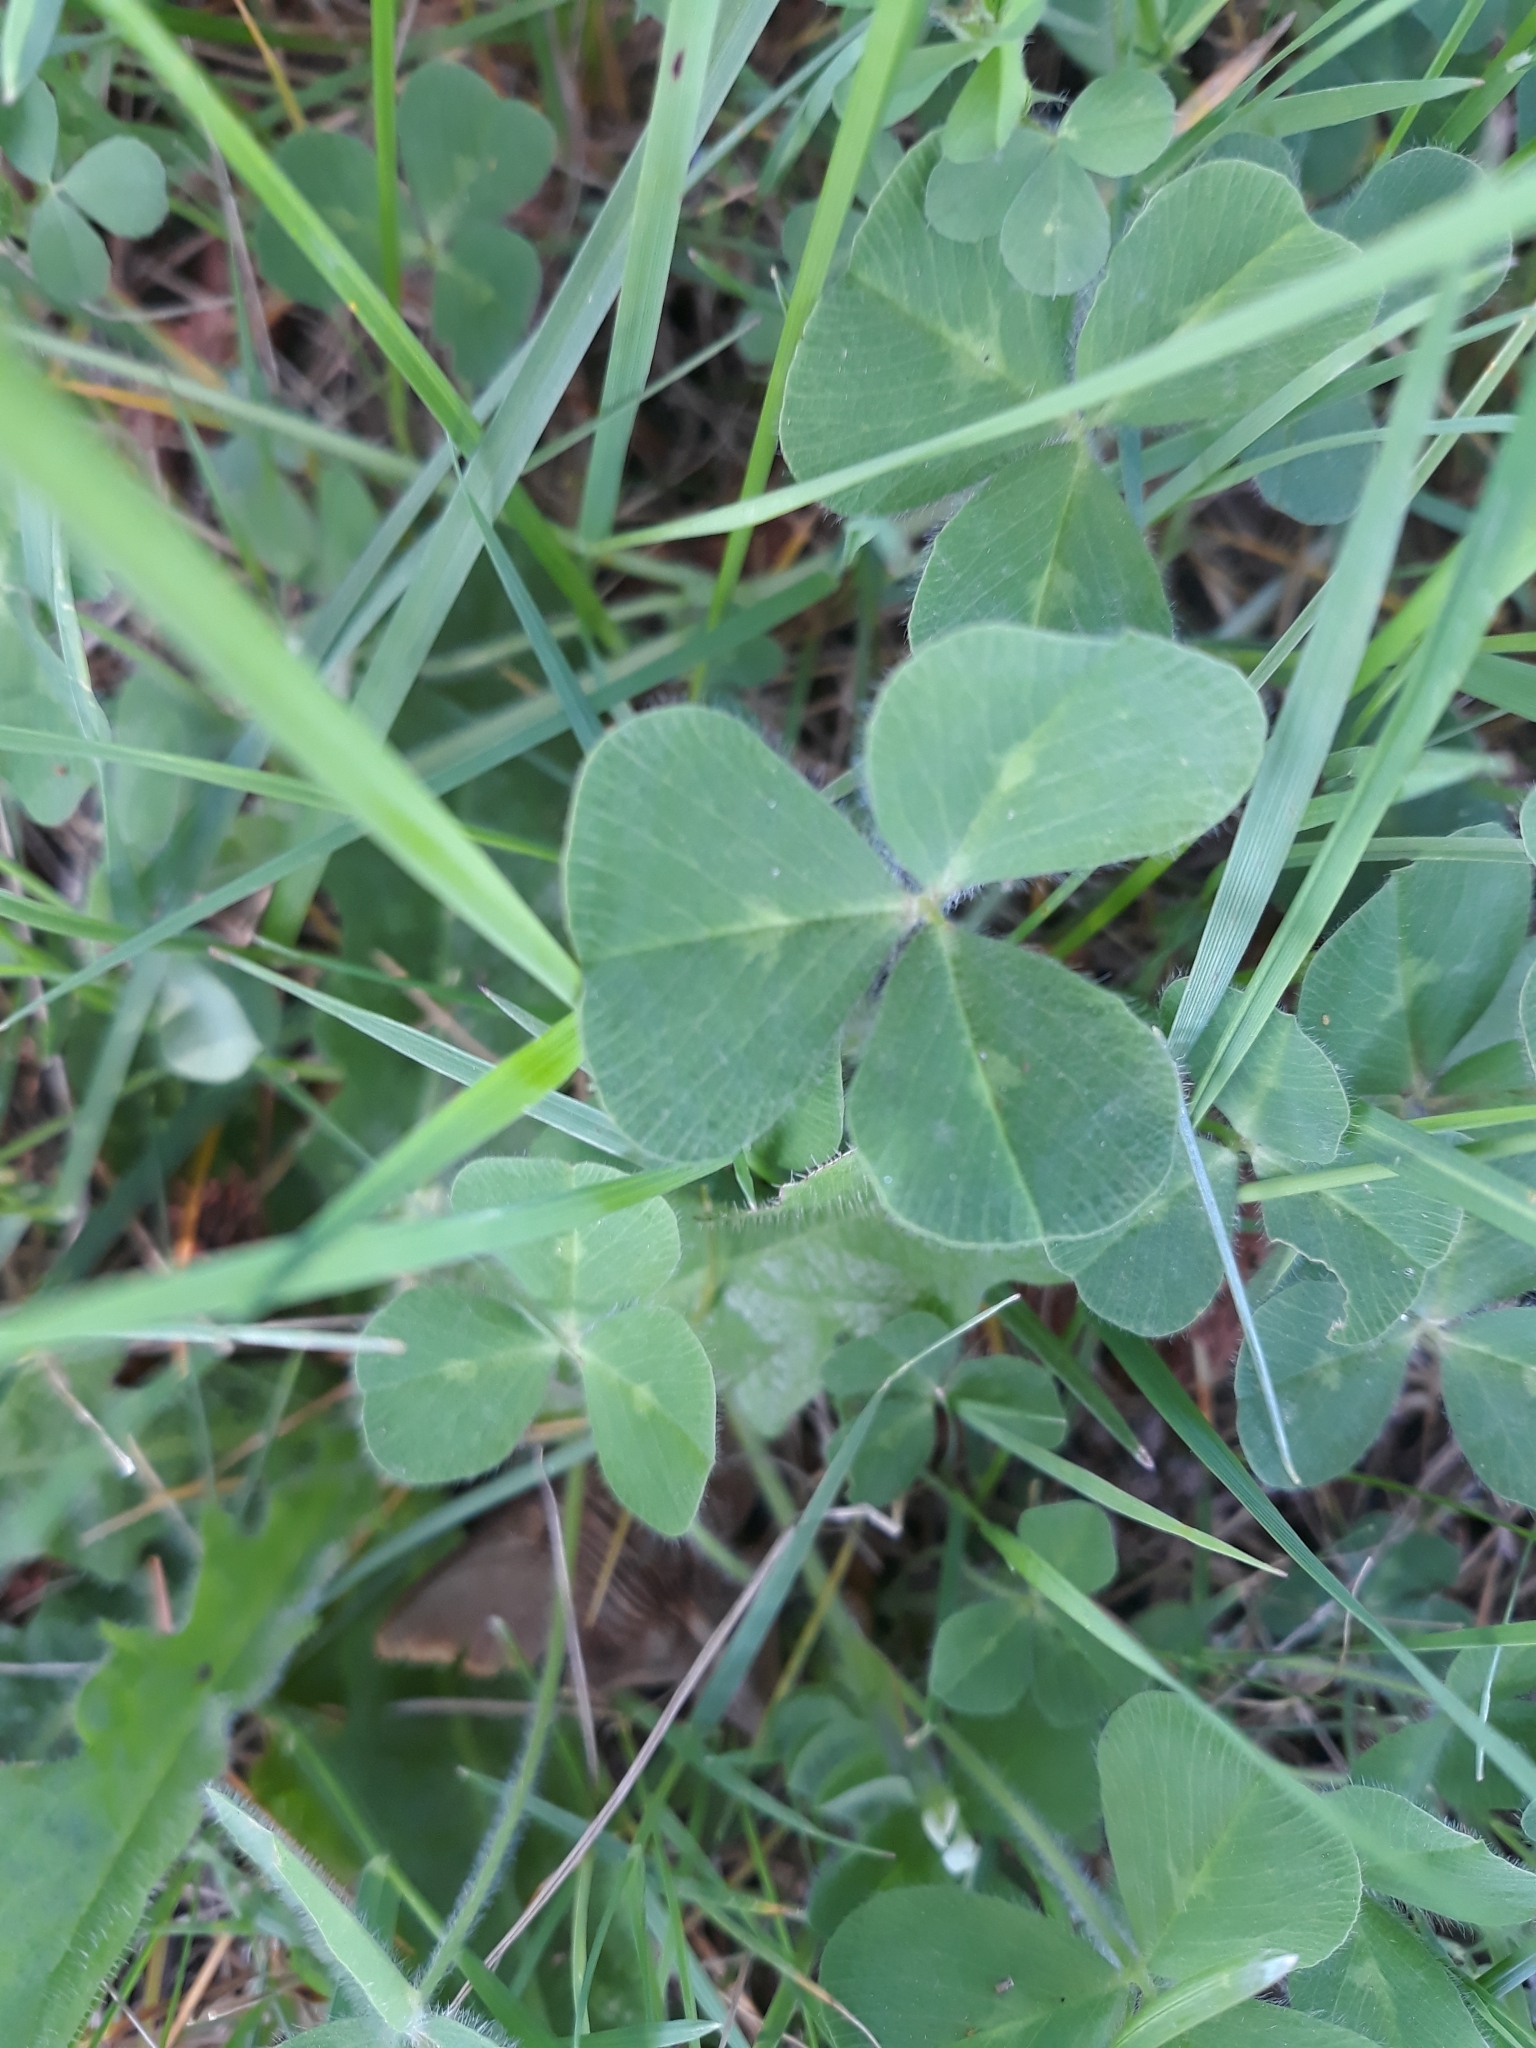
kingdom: Plantae
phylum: Tracheophyta
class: Magnoliopsida
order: Fabales
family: Fabaceae
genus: Trifolium
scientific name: Trifolium subterraneum
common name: Subterranean clover
